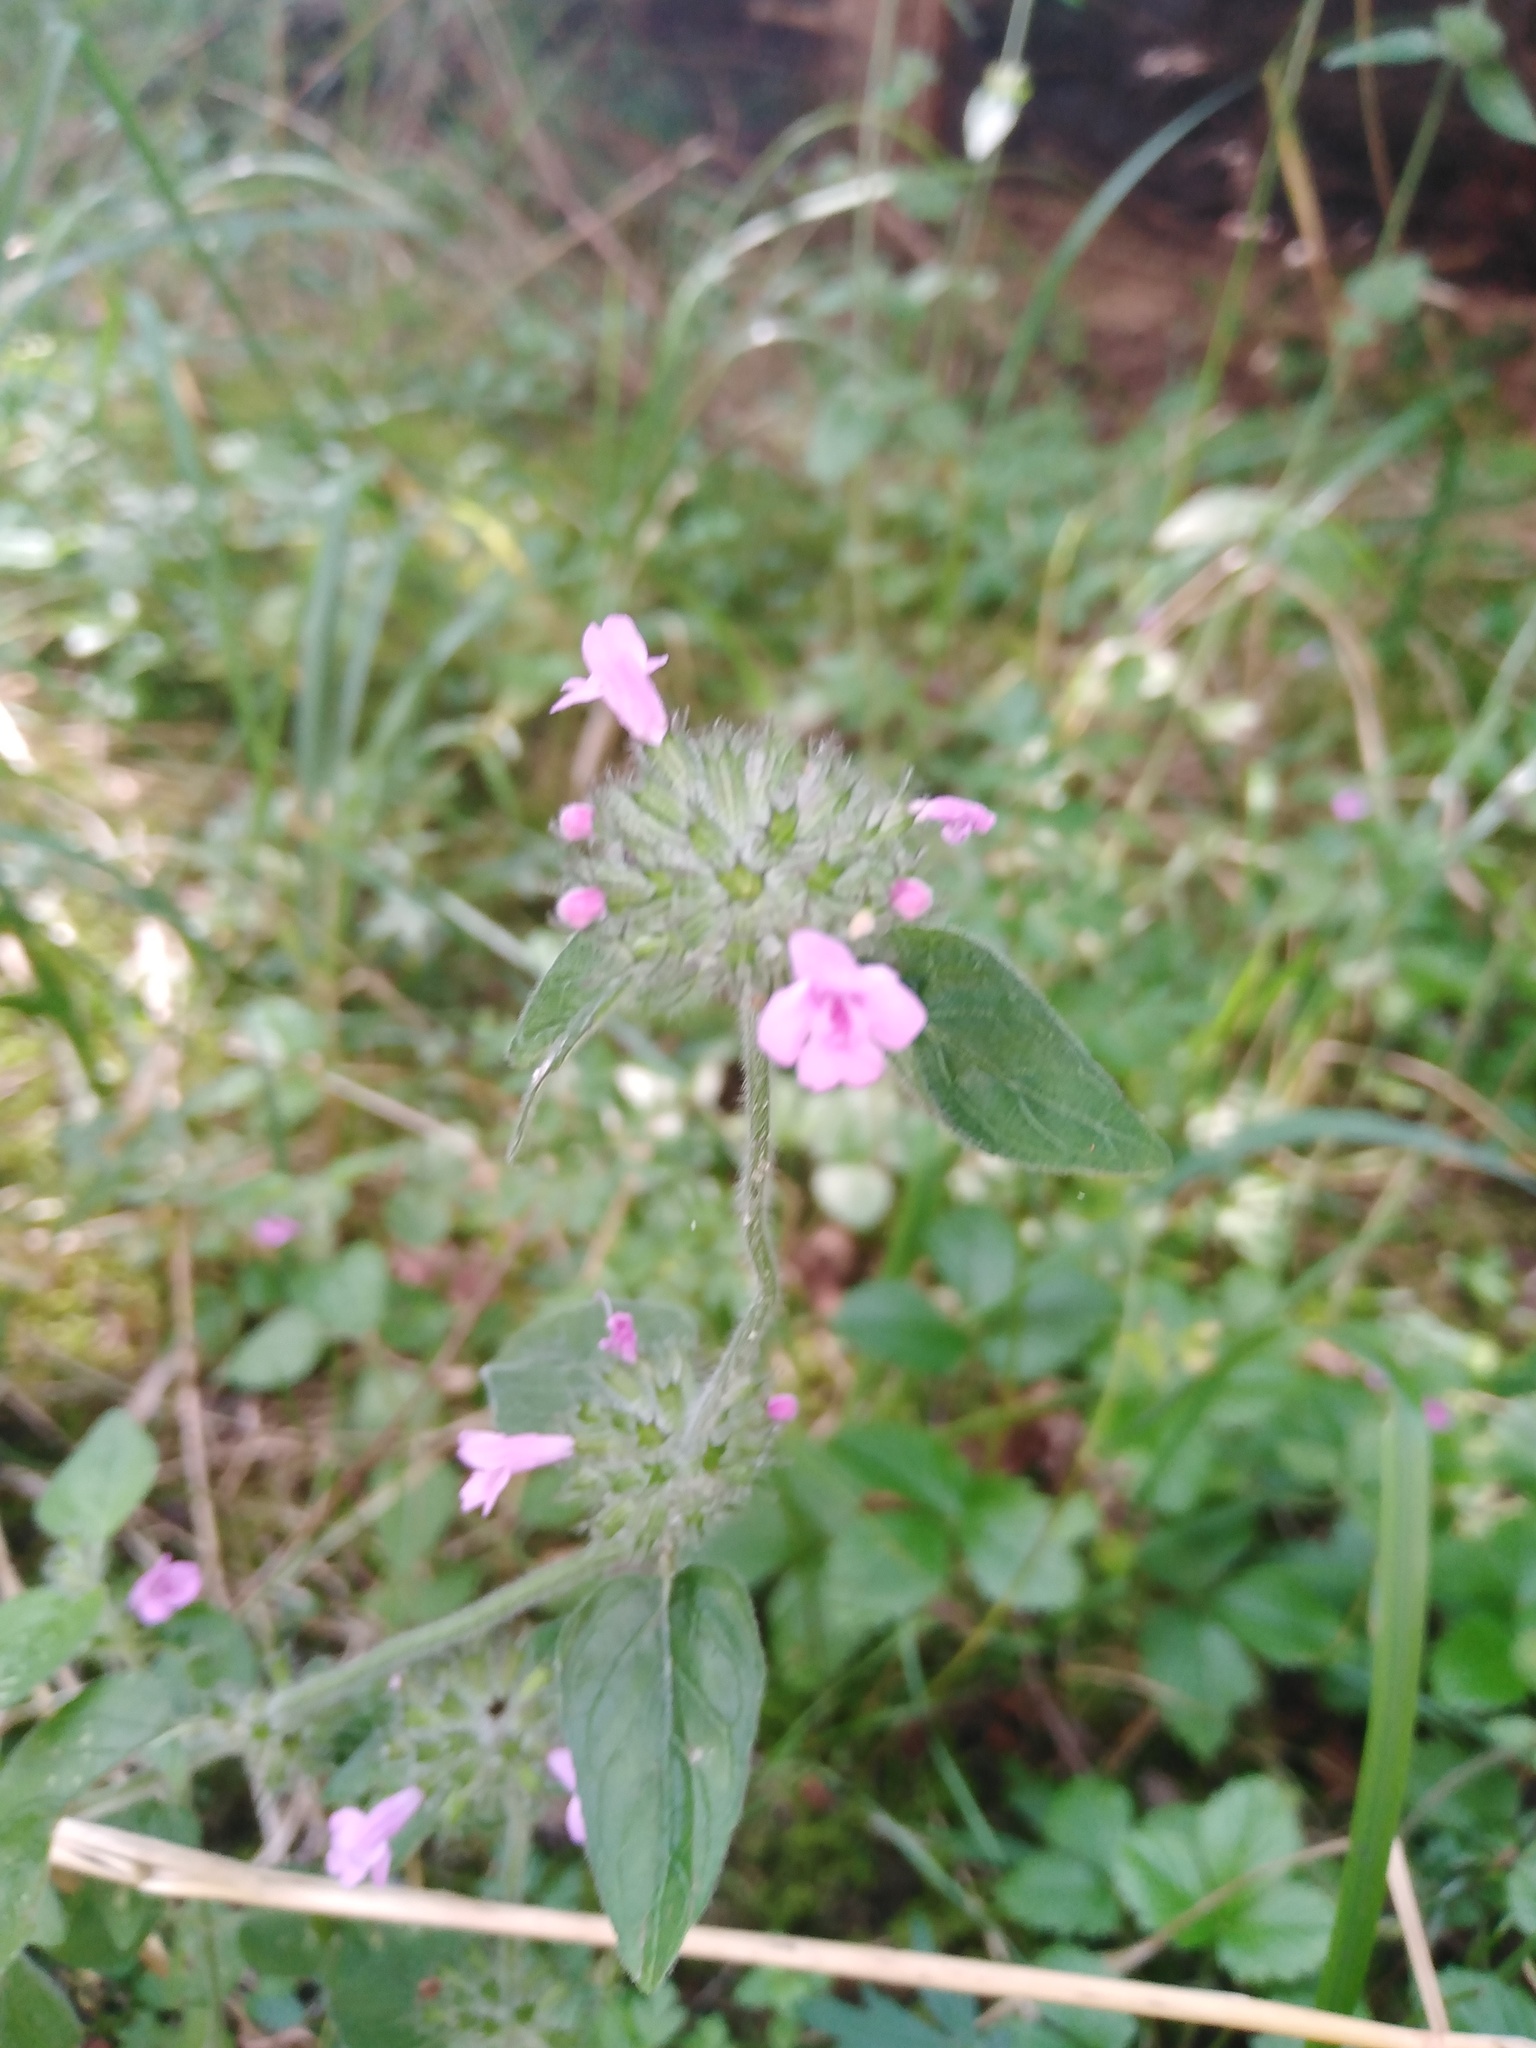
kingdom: Plantae
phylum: Tracheophyta
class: Magnoliopsida
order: Lamiales
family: Lamiaceae
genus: Clinopodium
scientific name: Clinopodium vulgare
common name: Wild basil
